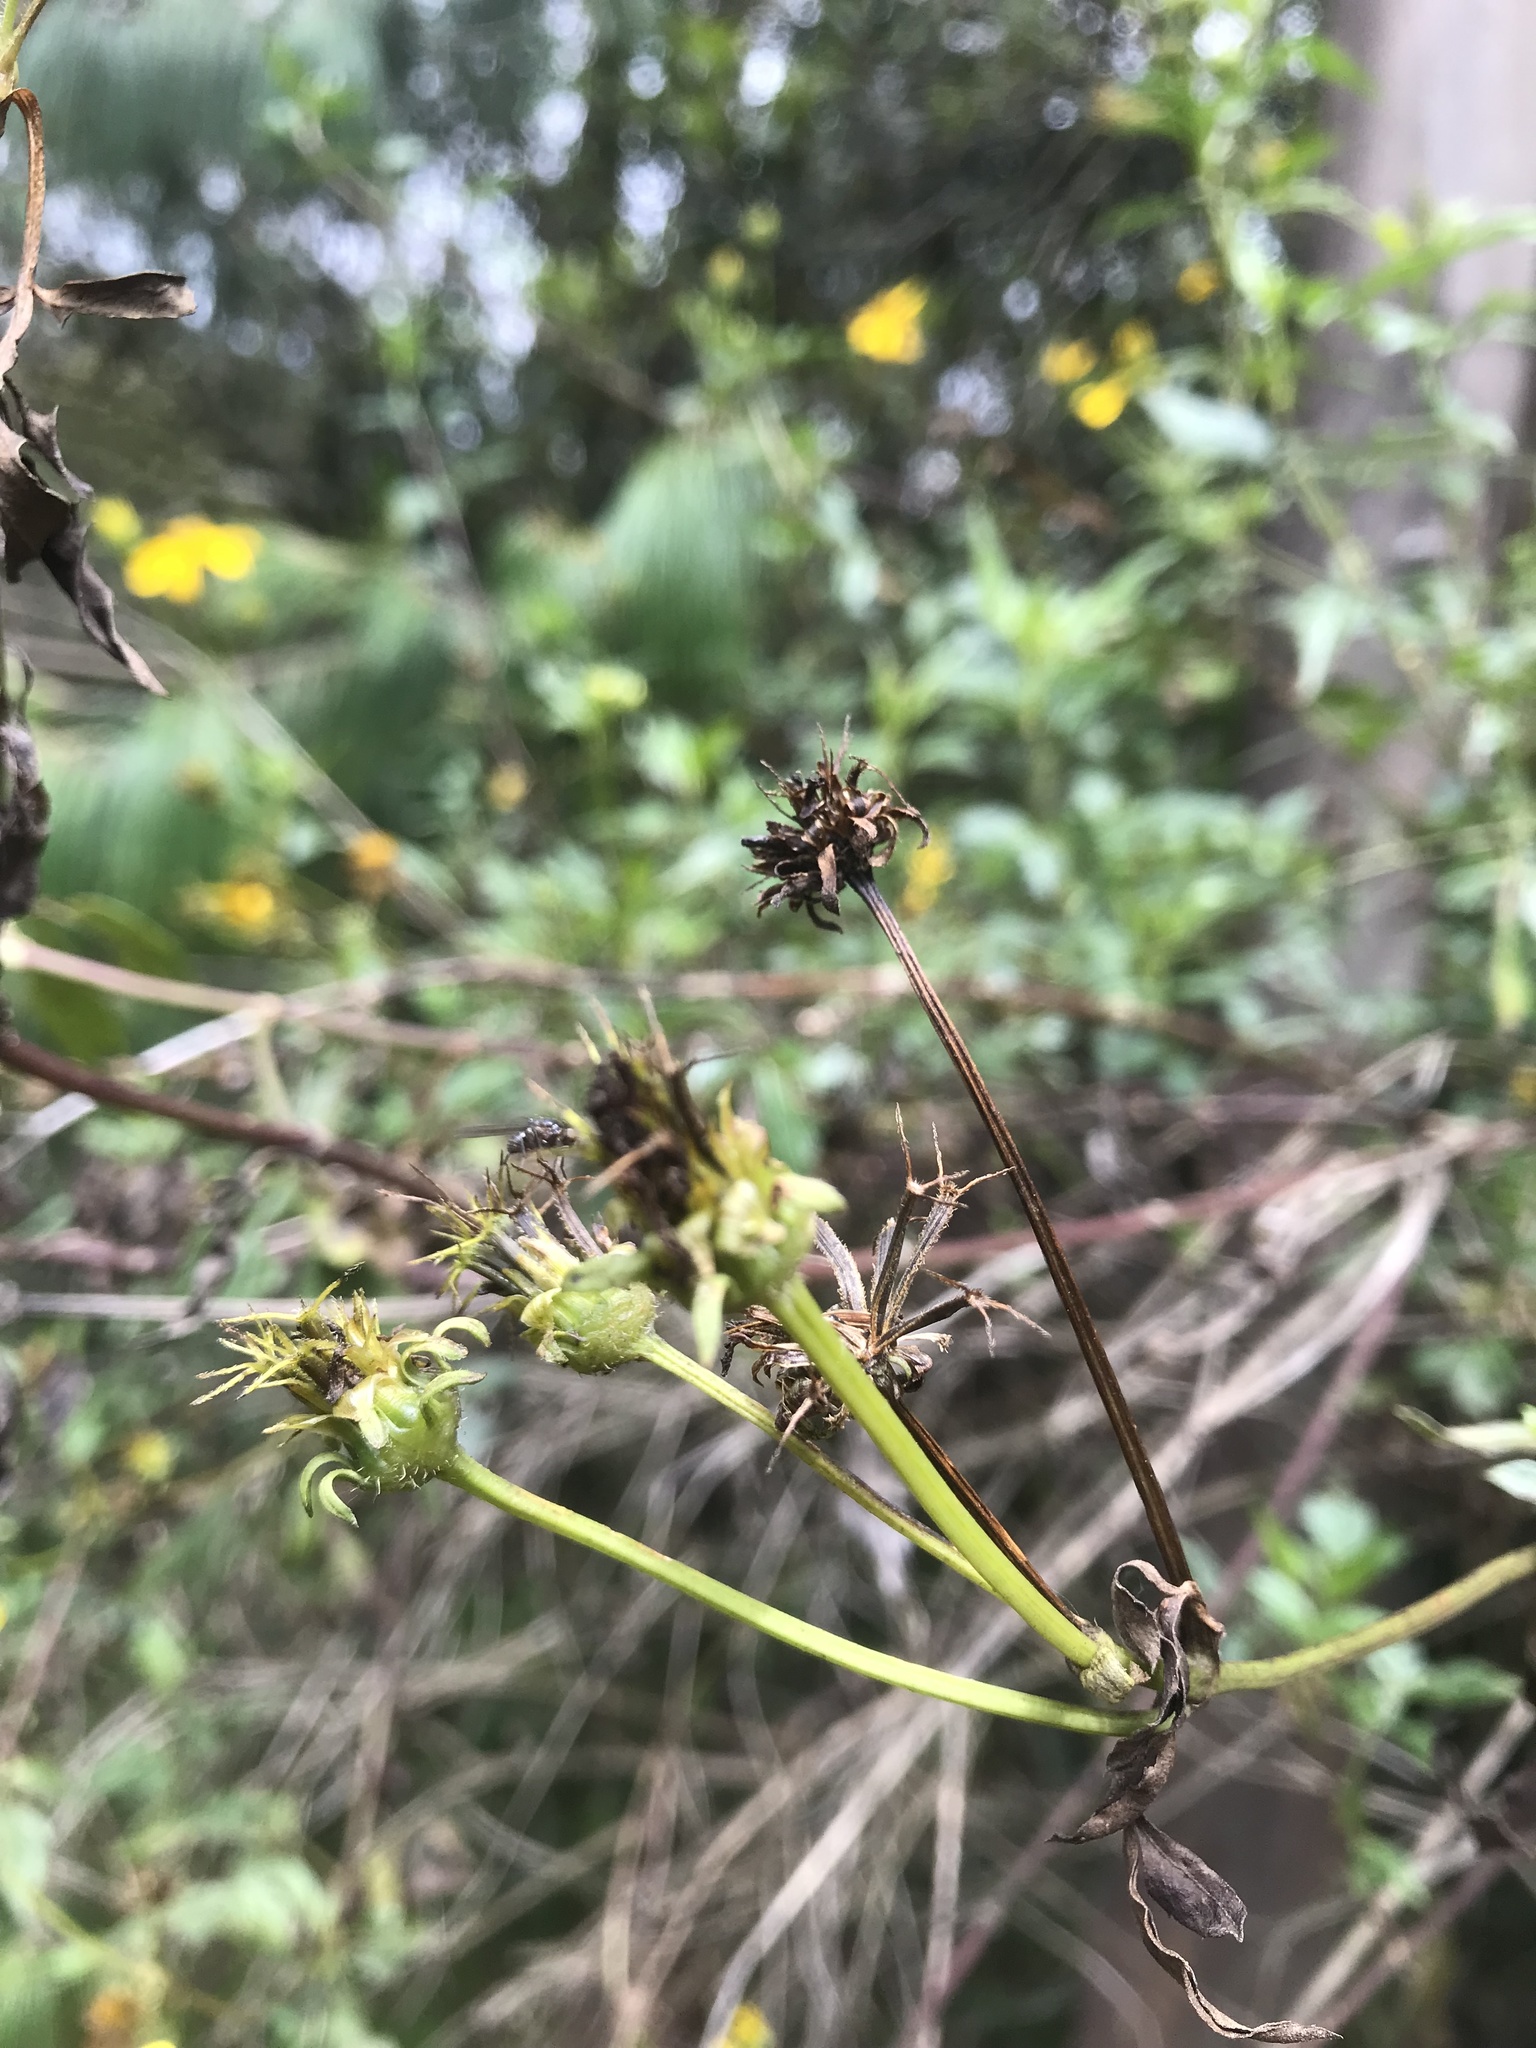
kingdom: Plantae
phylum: Tracheophyta
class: Magnoliopsida
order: Asterales
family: Asteraceae
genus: Bidens
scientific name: Bidens rubifolia
